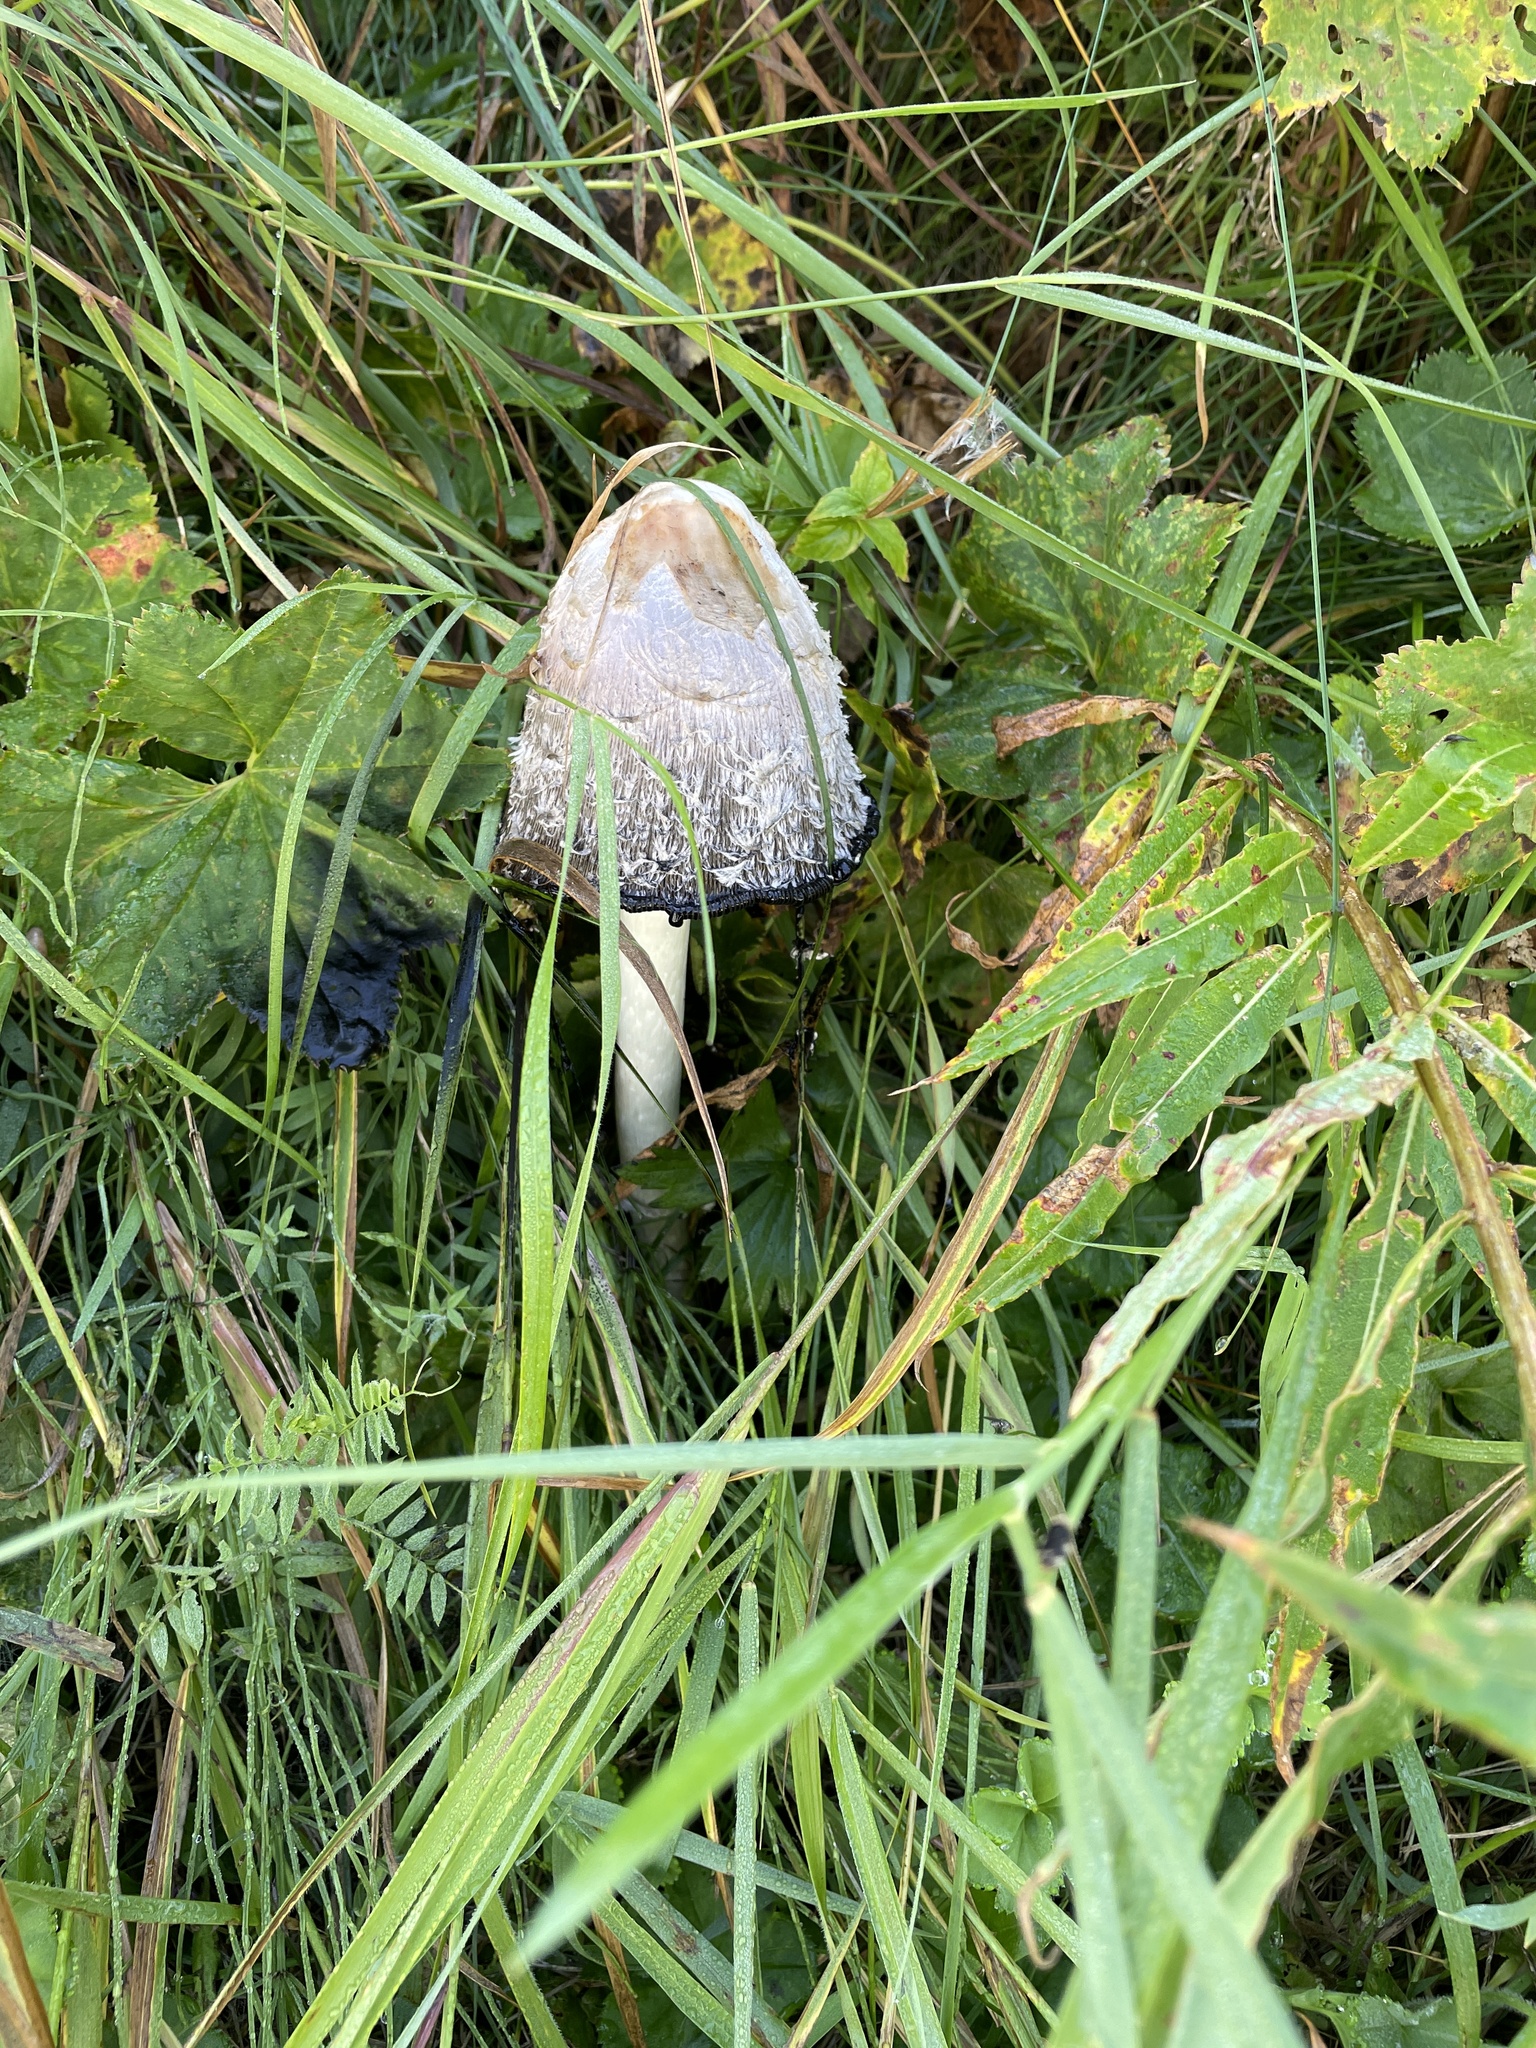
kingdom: Fungi
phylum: Basidiomycota
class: Agaricomycetes
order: Agaricales
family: Agaricaceae
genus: Coprinus
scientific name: Coprinus comatus
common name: Lawyer's wig
